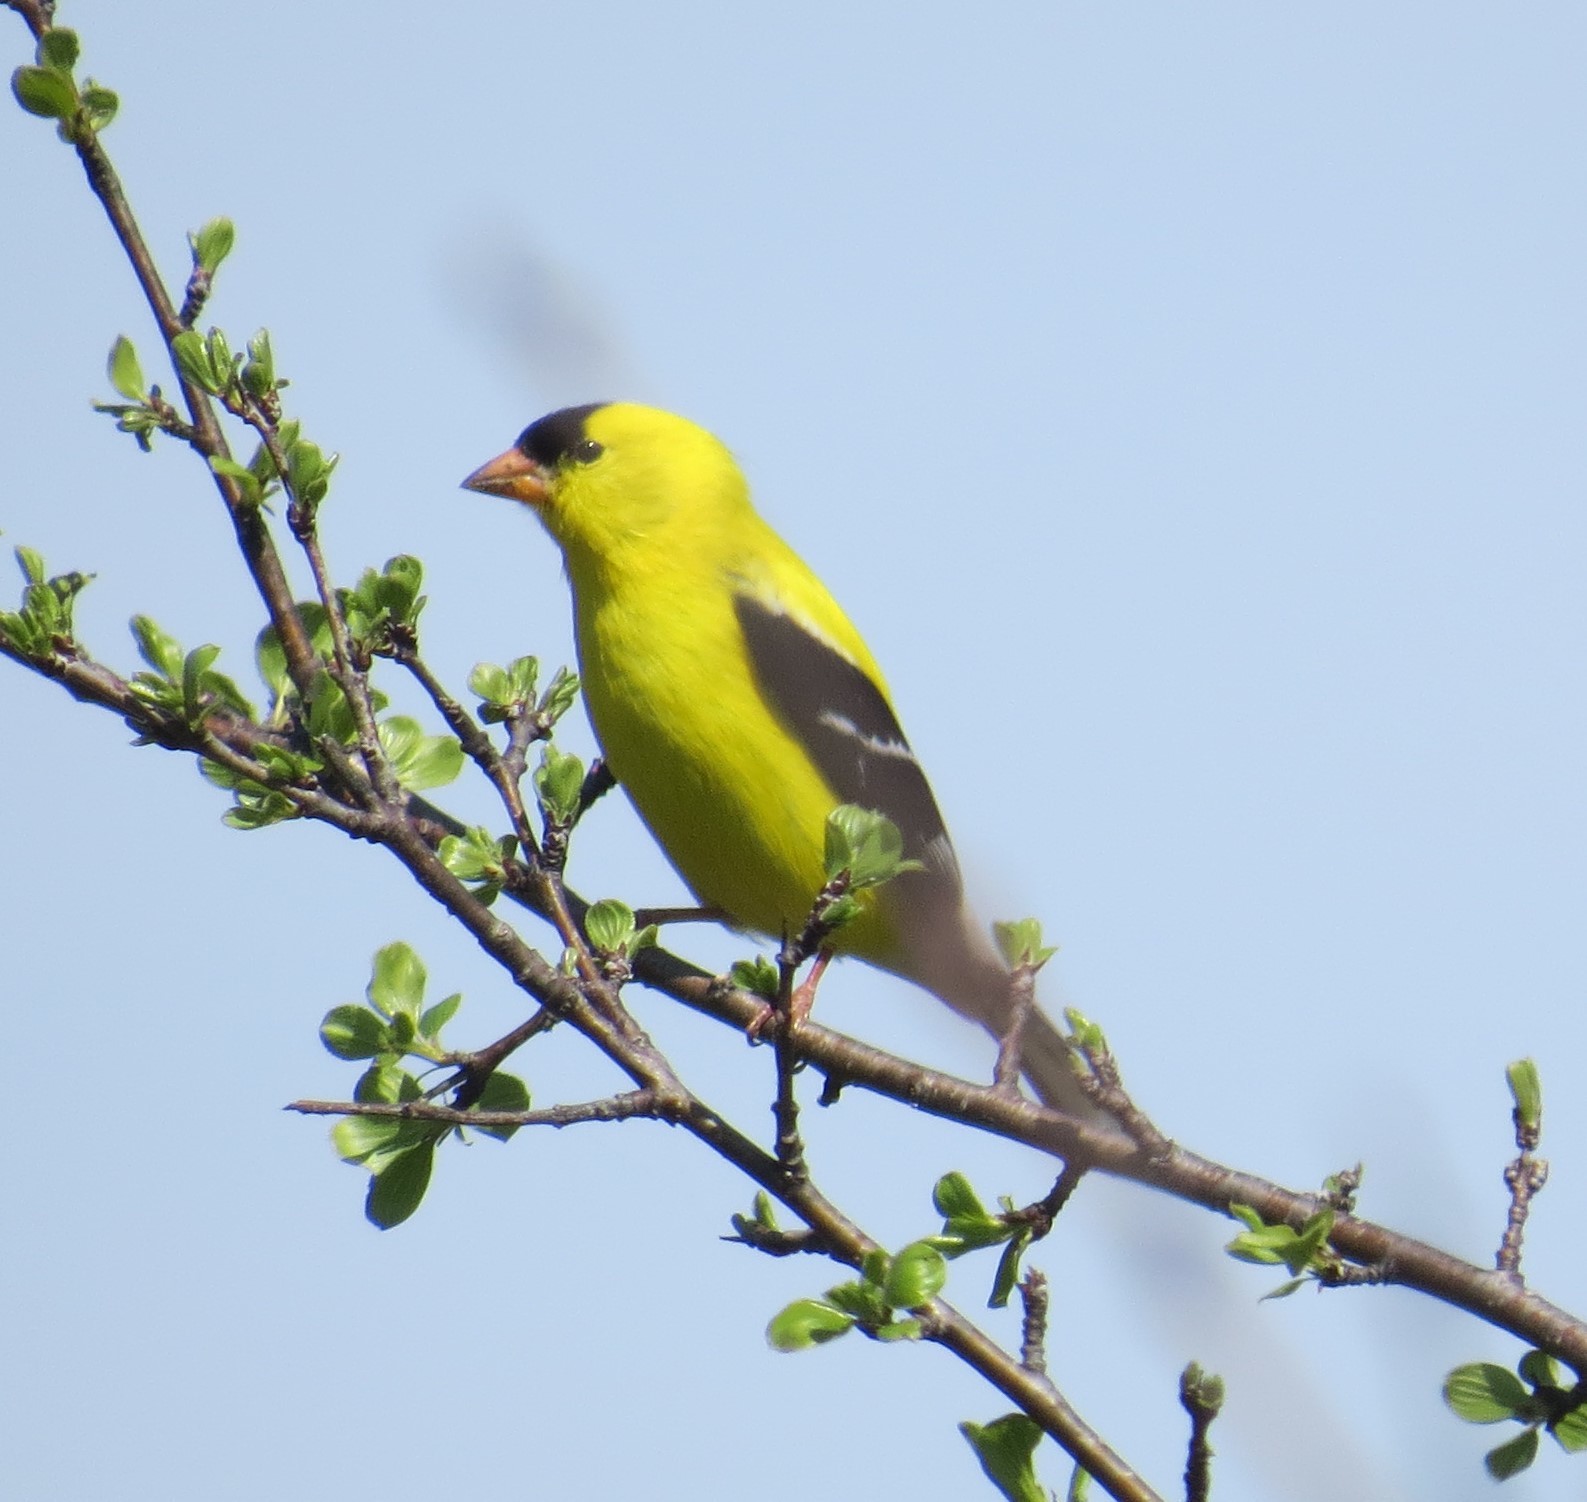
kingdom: Animalia
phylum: Chordata
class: Aves
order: Passeriformes
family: Fringillidae
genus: Spinus
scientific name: Spinus tristis
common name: American goldfinch
